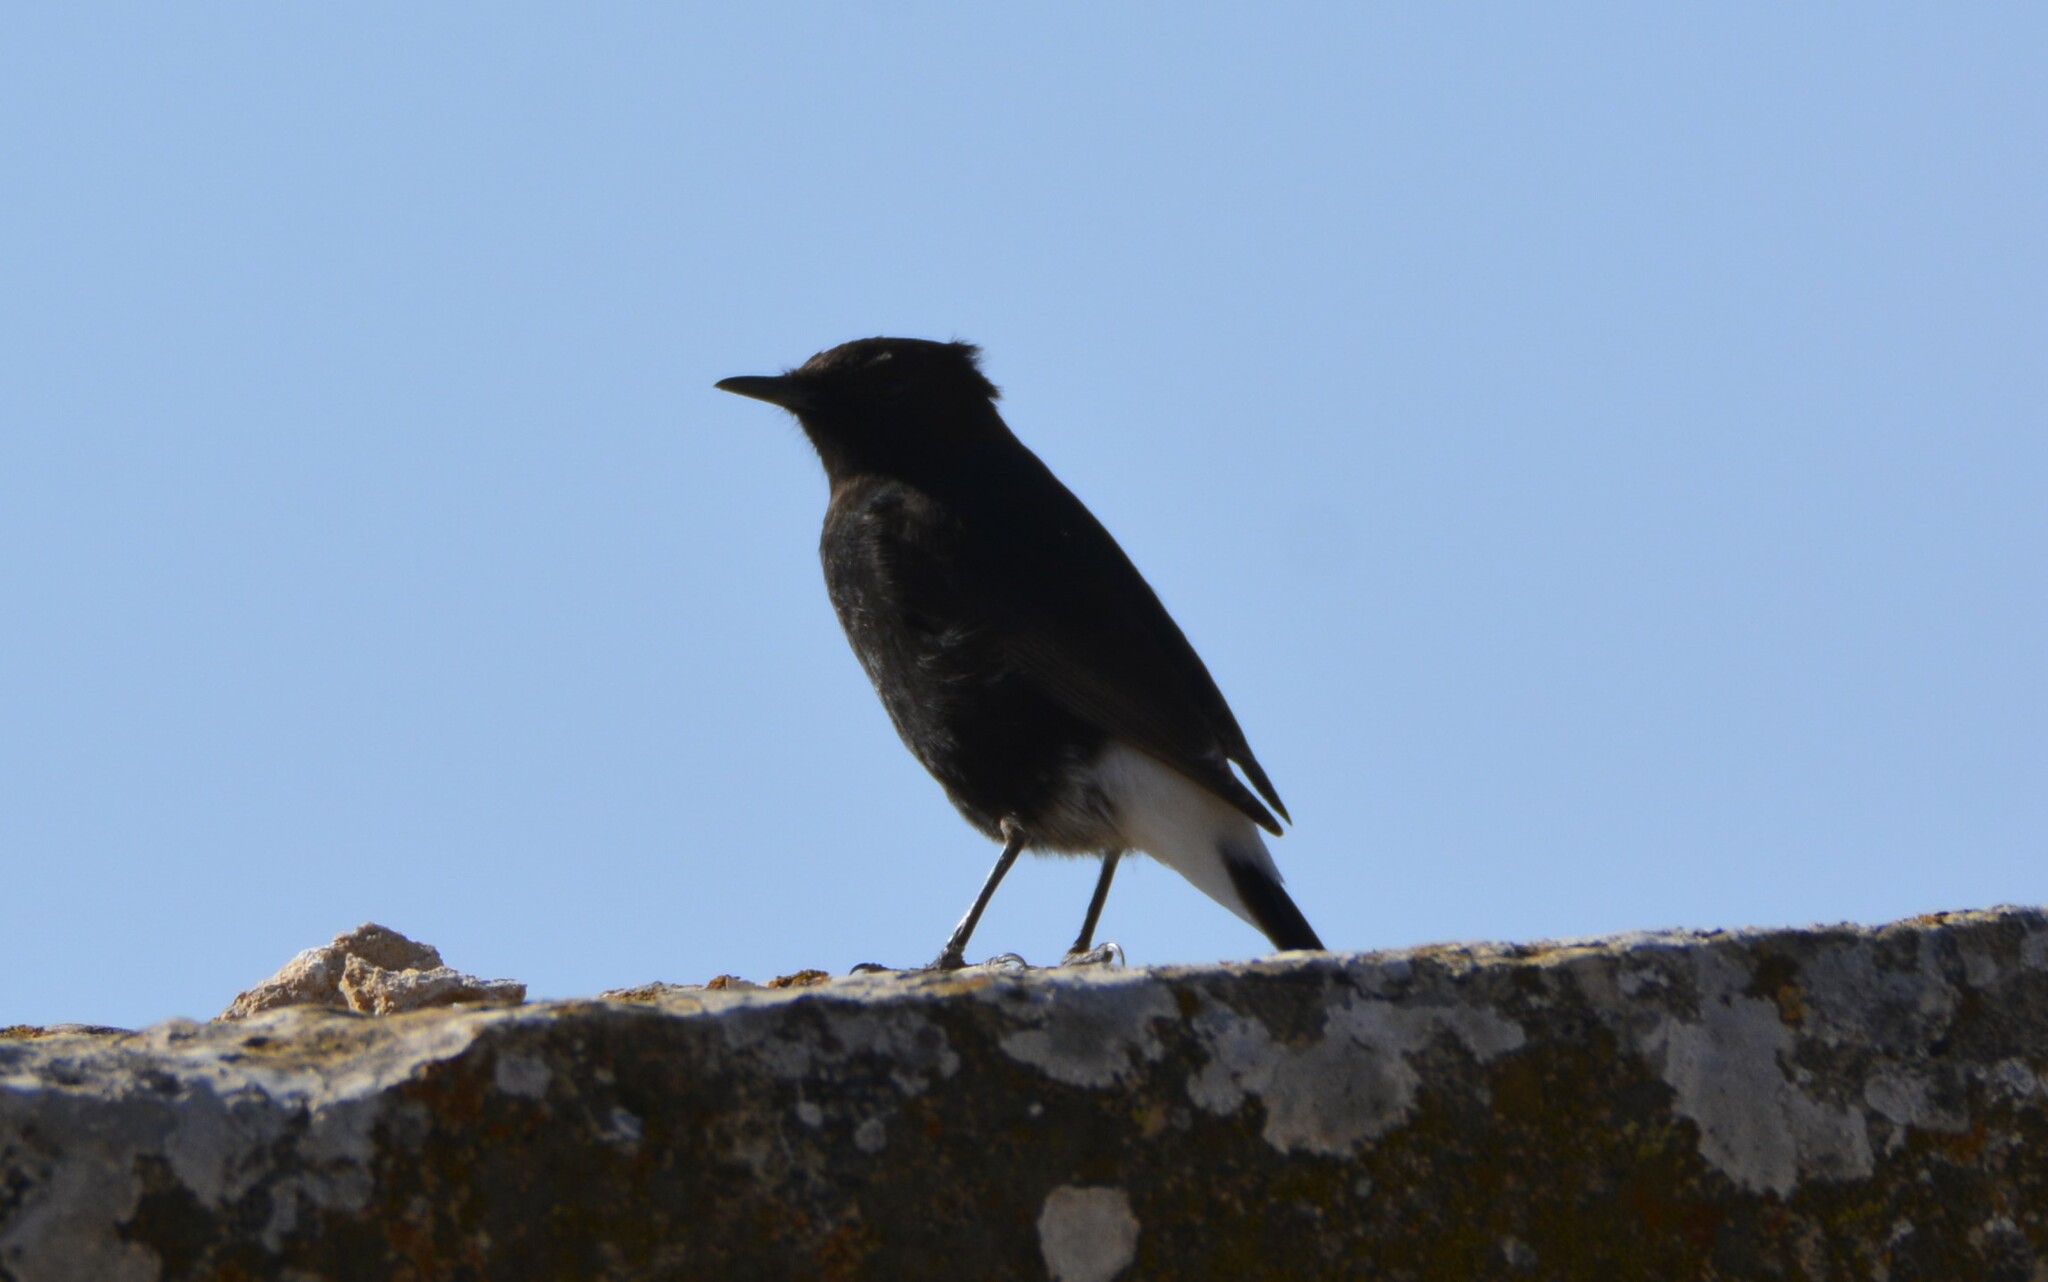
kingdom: Animalia
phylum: Chordata
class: Aves
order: Passeriformes
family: Muscicapidae
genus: Oenanthe
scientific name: Oenanthe leucura
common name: Black wheatear
